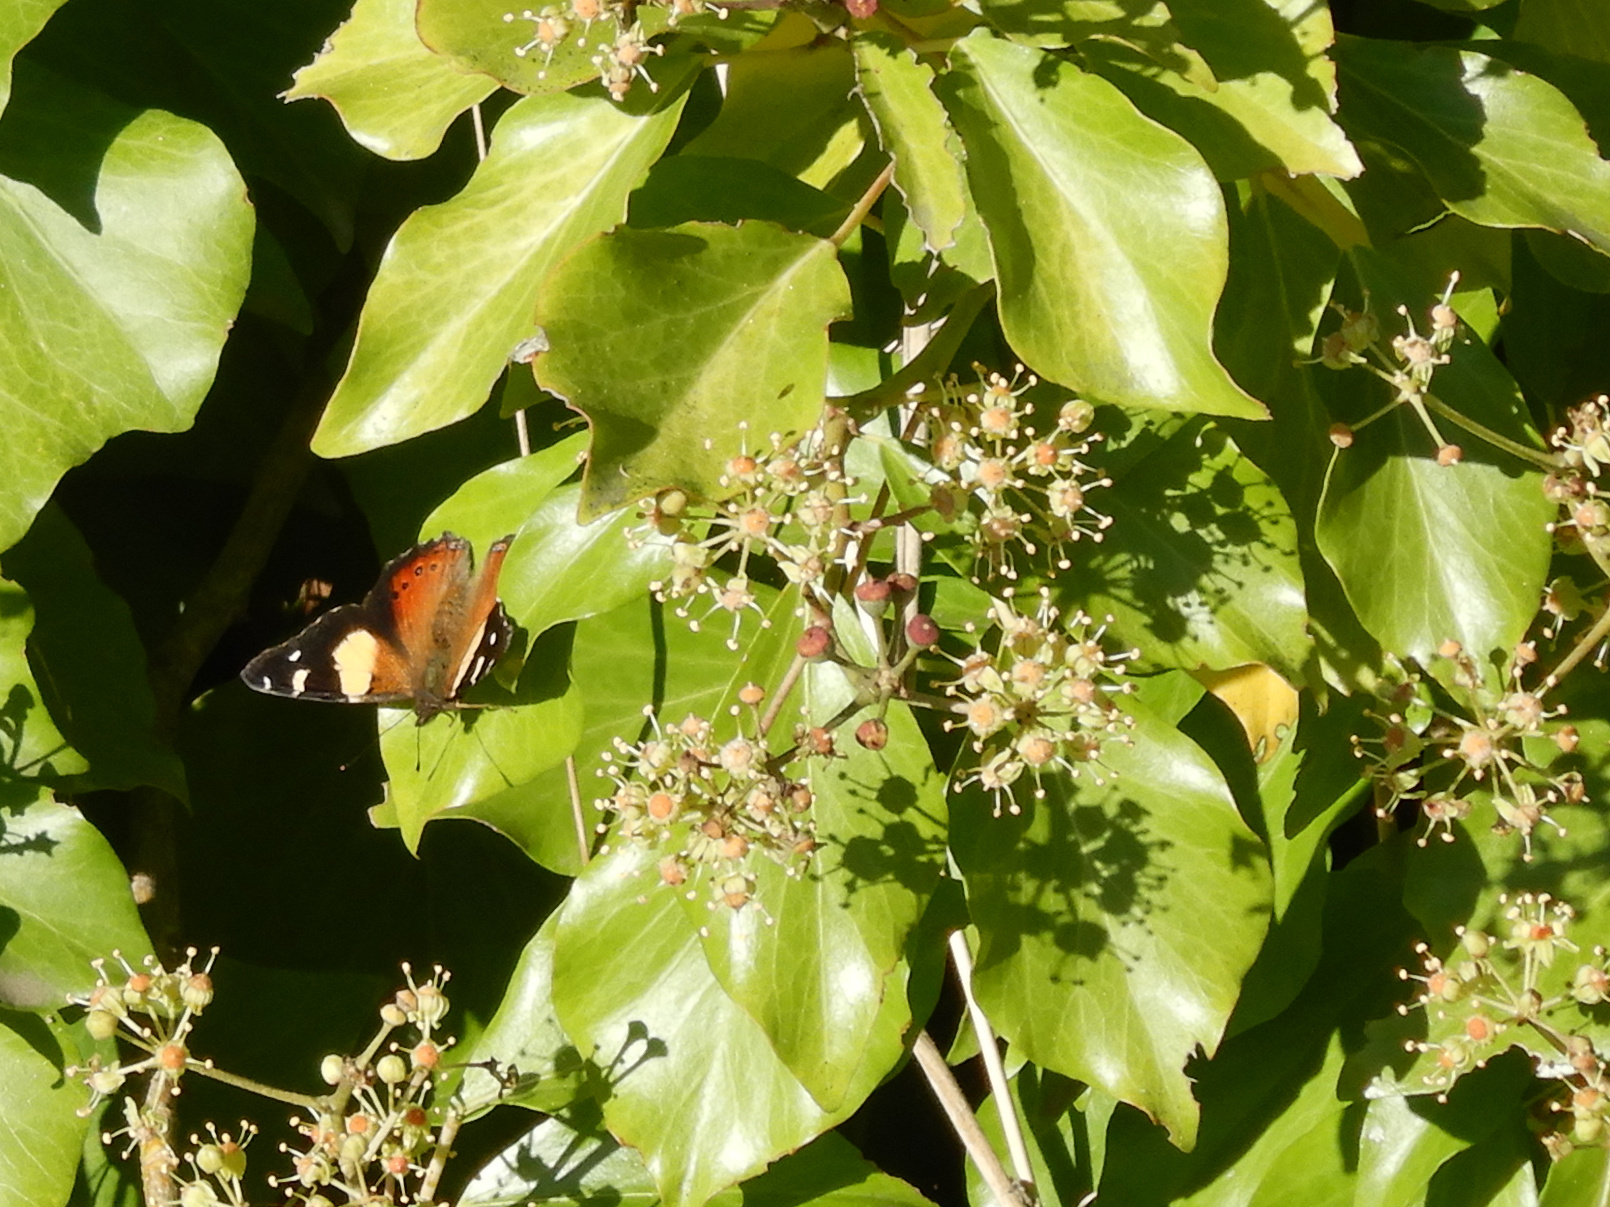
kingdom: Animalia
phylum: Arthropoda
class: Insecta
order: Lepidoptera
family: Nymphalidae
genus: Vanessa
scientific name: Vanessa itea
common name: Yellow admiral
